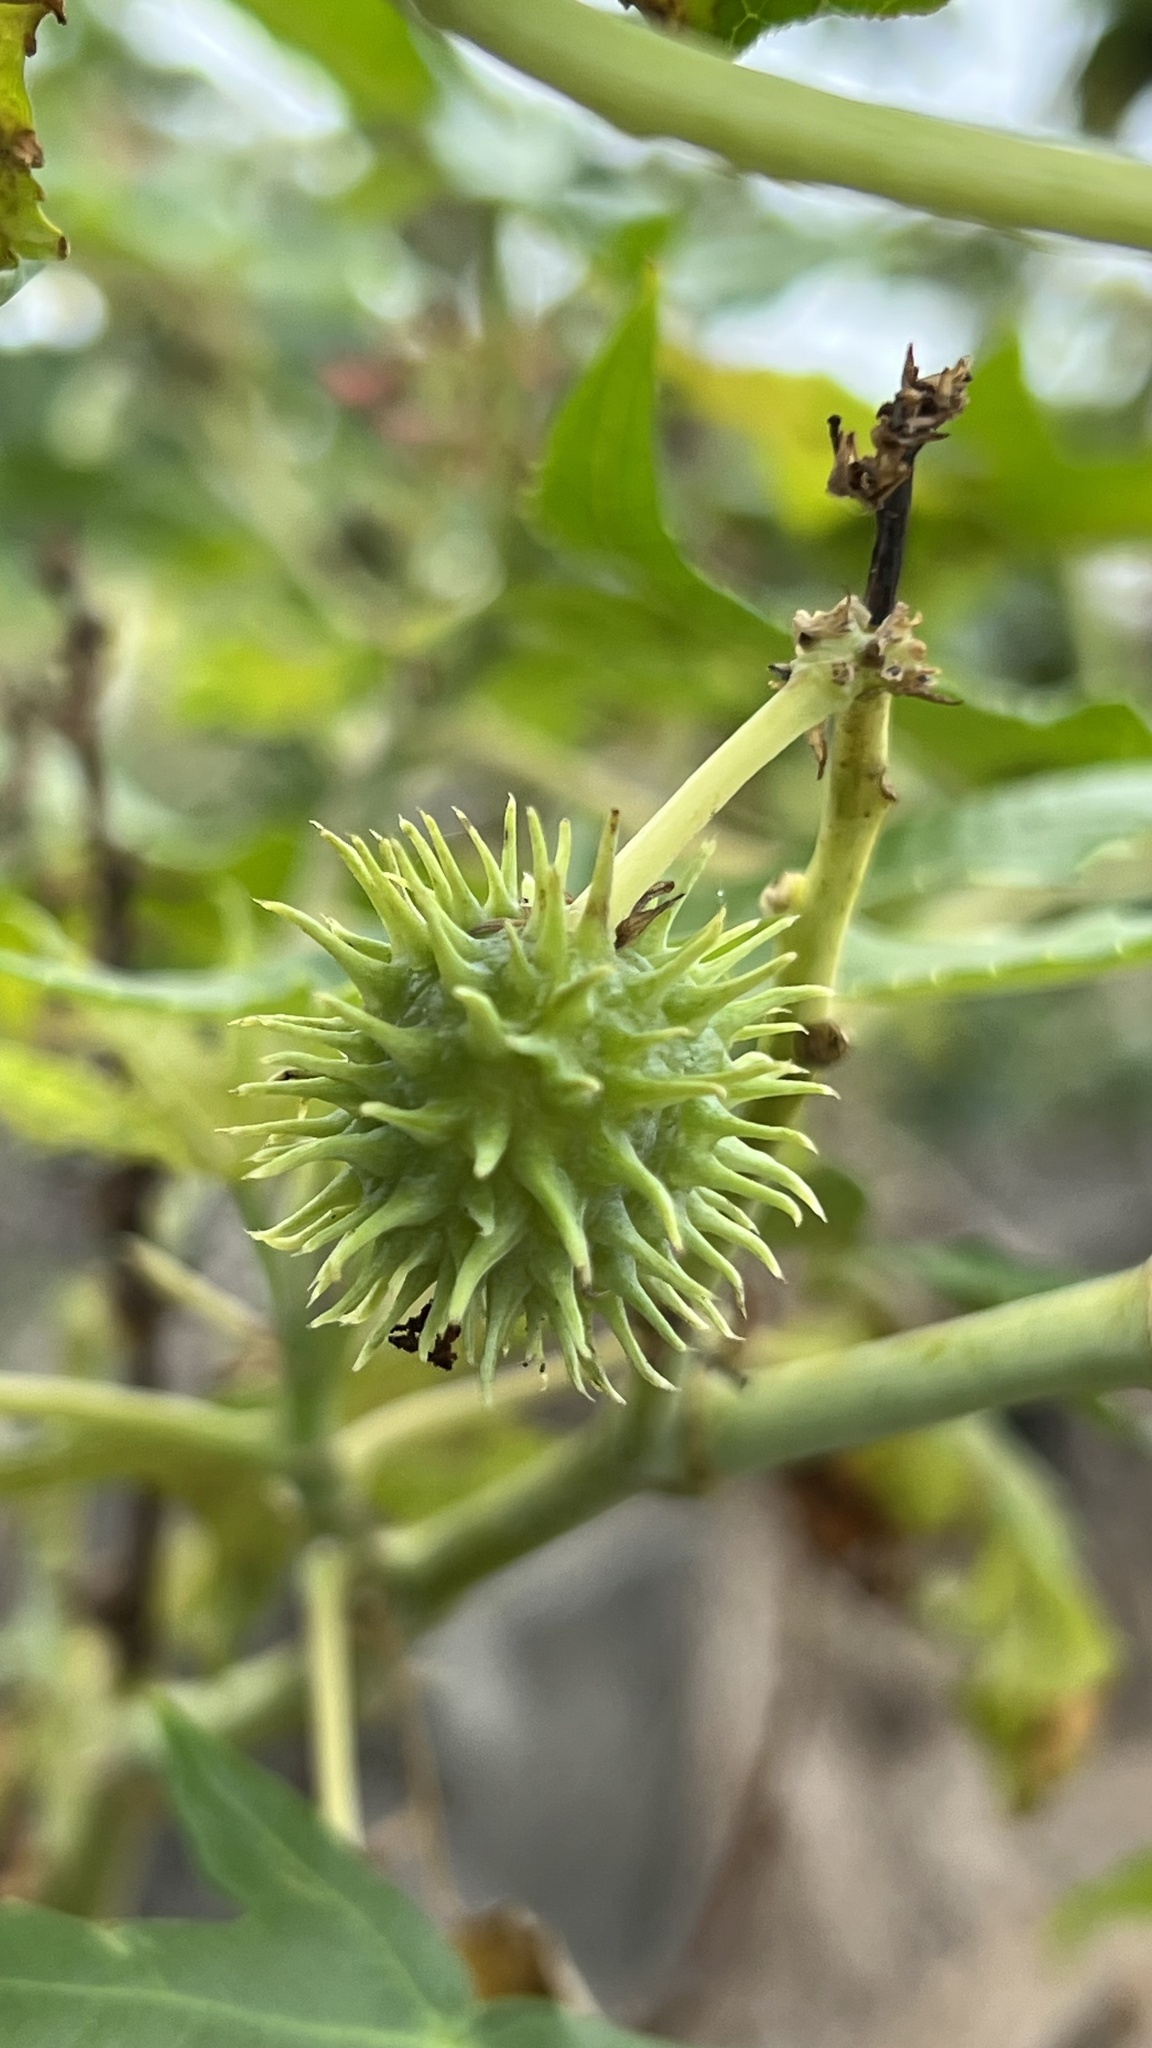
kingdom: Plantae
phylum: Tracheophyta
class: Magnoliopsida
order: Malpighiales
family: Euphorbiaceae
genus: Ricinus
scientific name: Ricinus communis
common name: Castor-oil-plant
